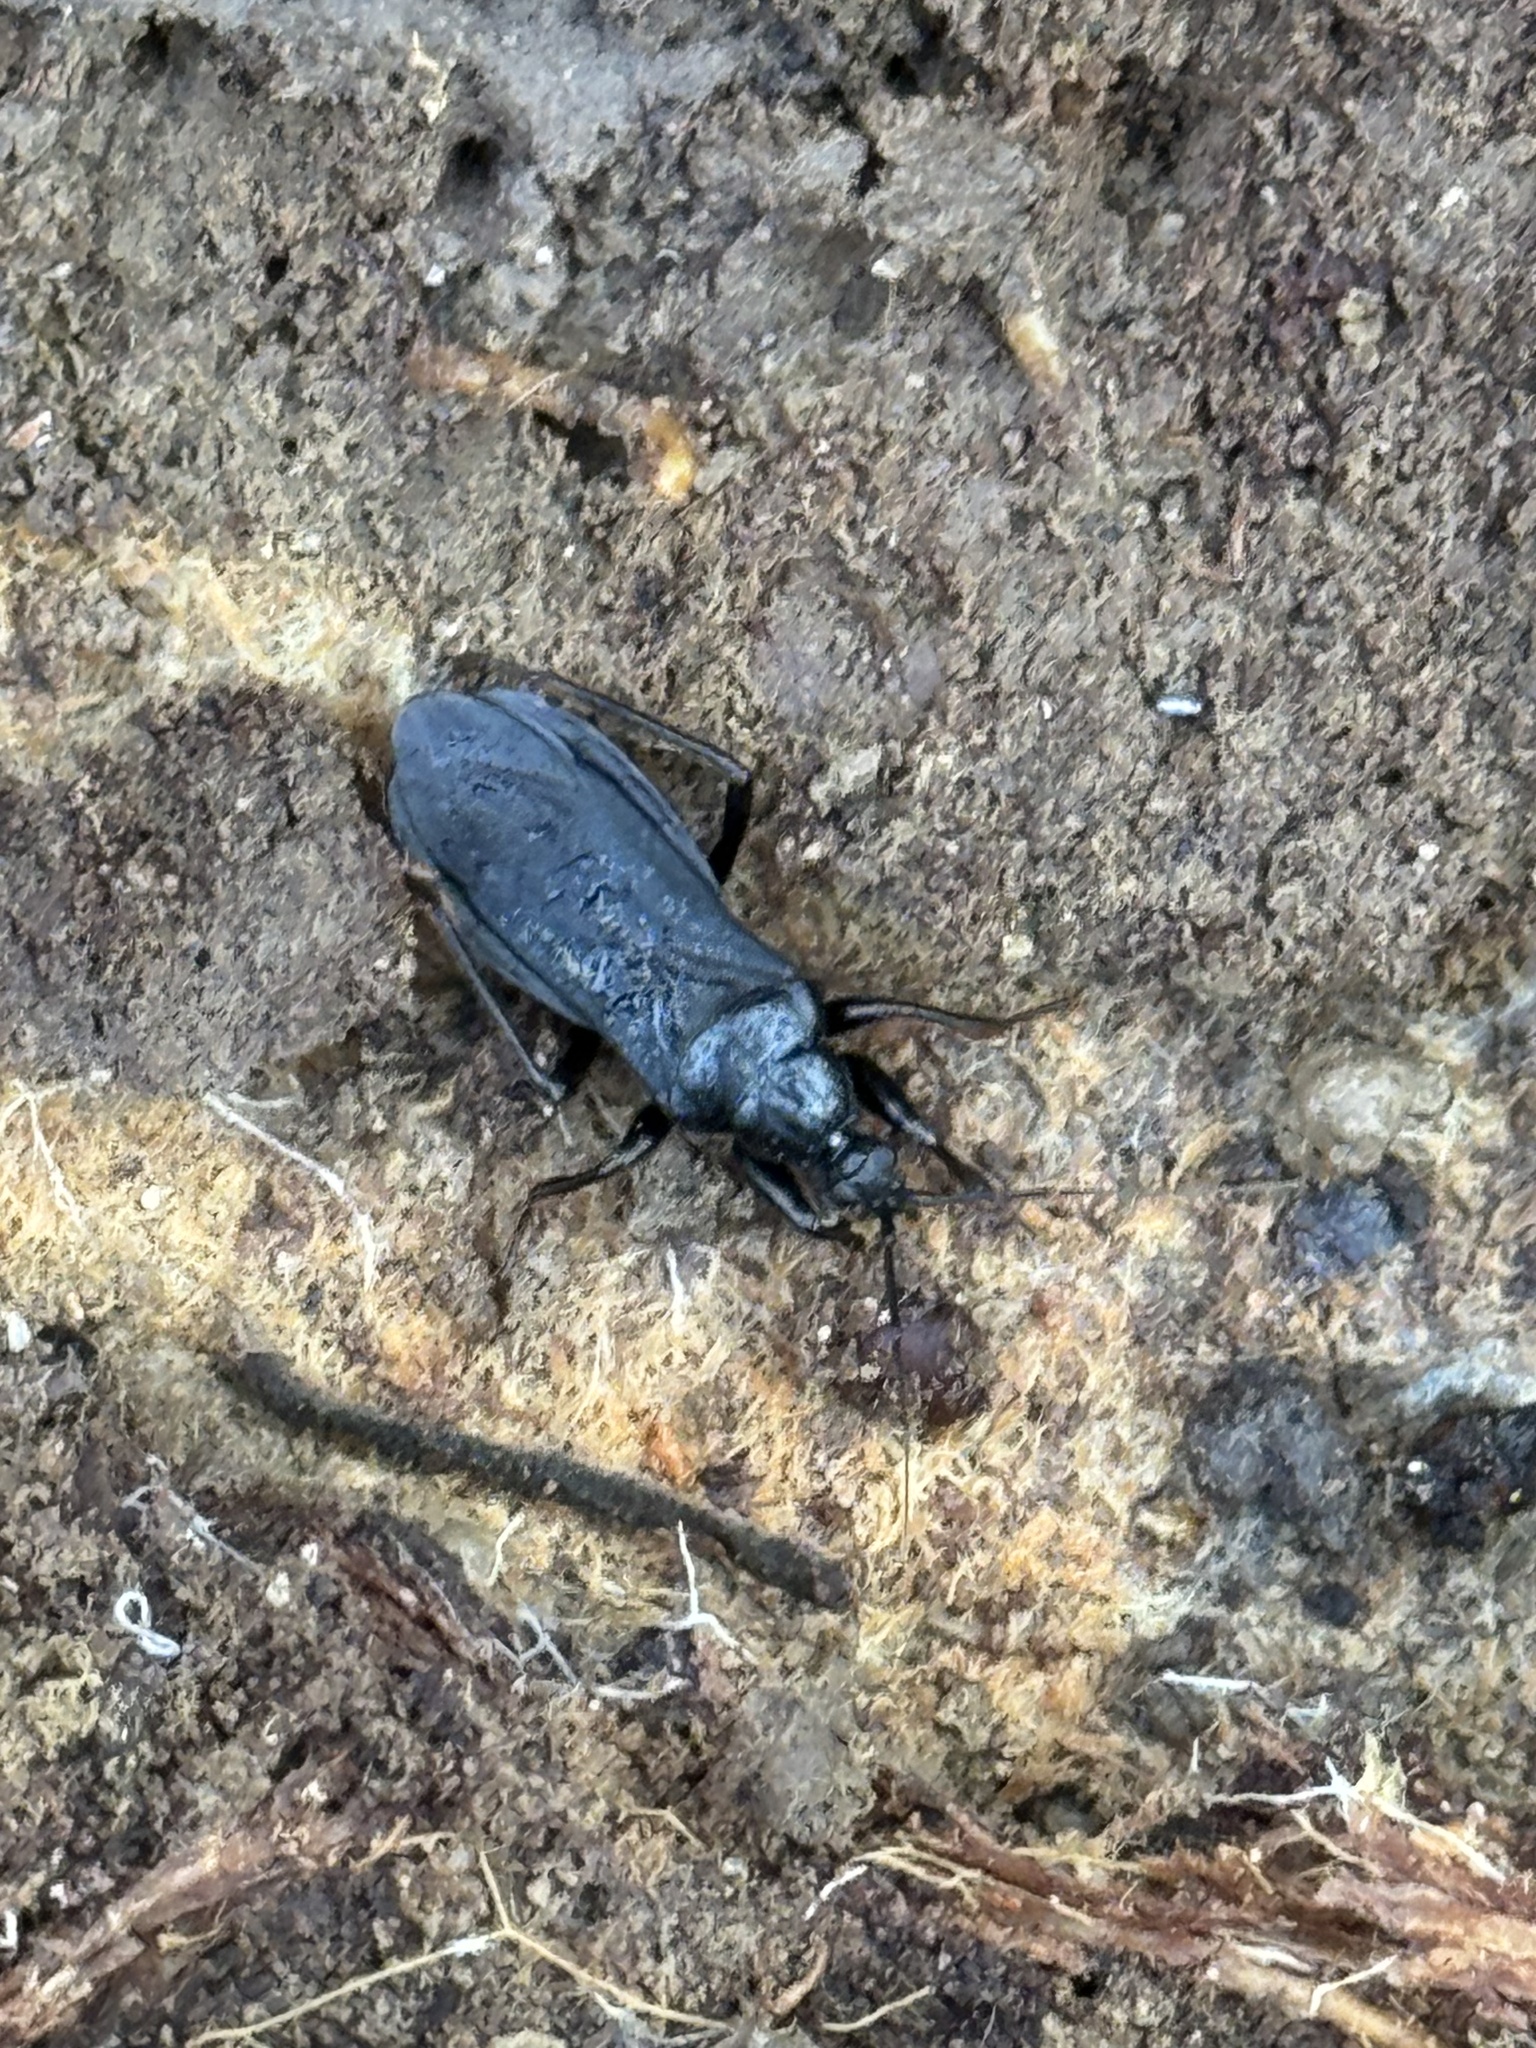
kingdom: Animalia
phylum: Arthropoda
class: Insecta
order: Hemiptera
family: Reduviidae
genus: Melanolestes
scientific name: Melanolestes picipes
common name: Assassin bug
